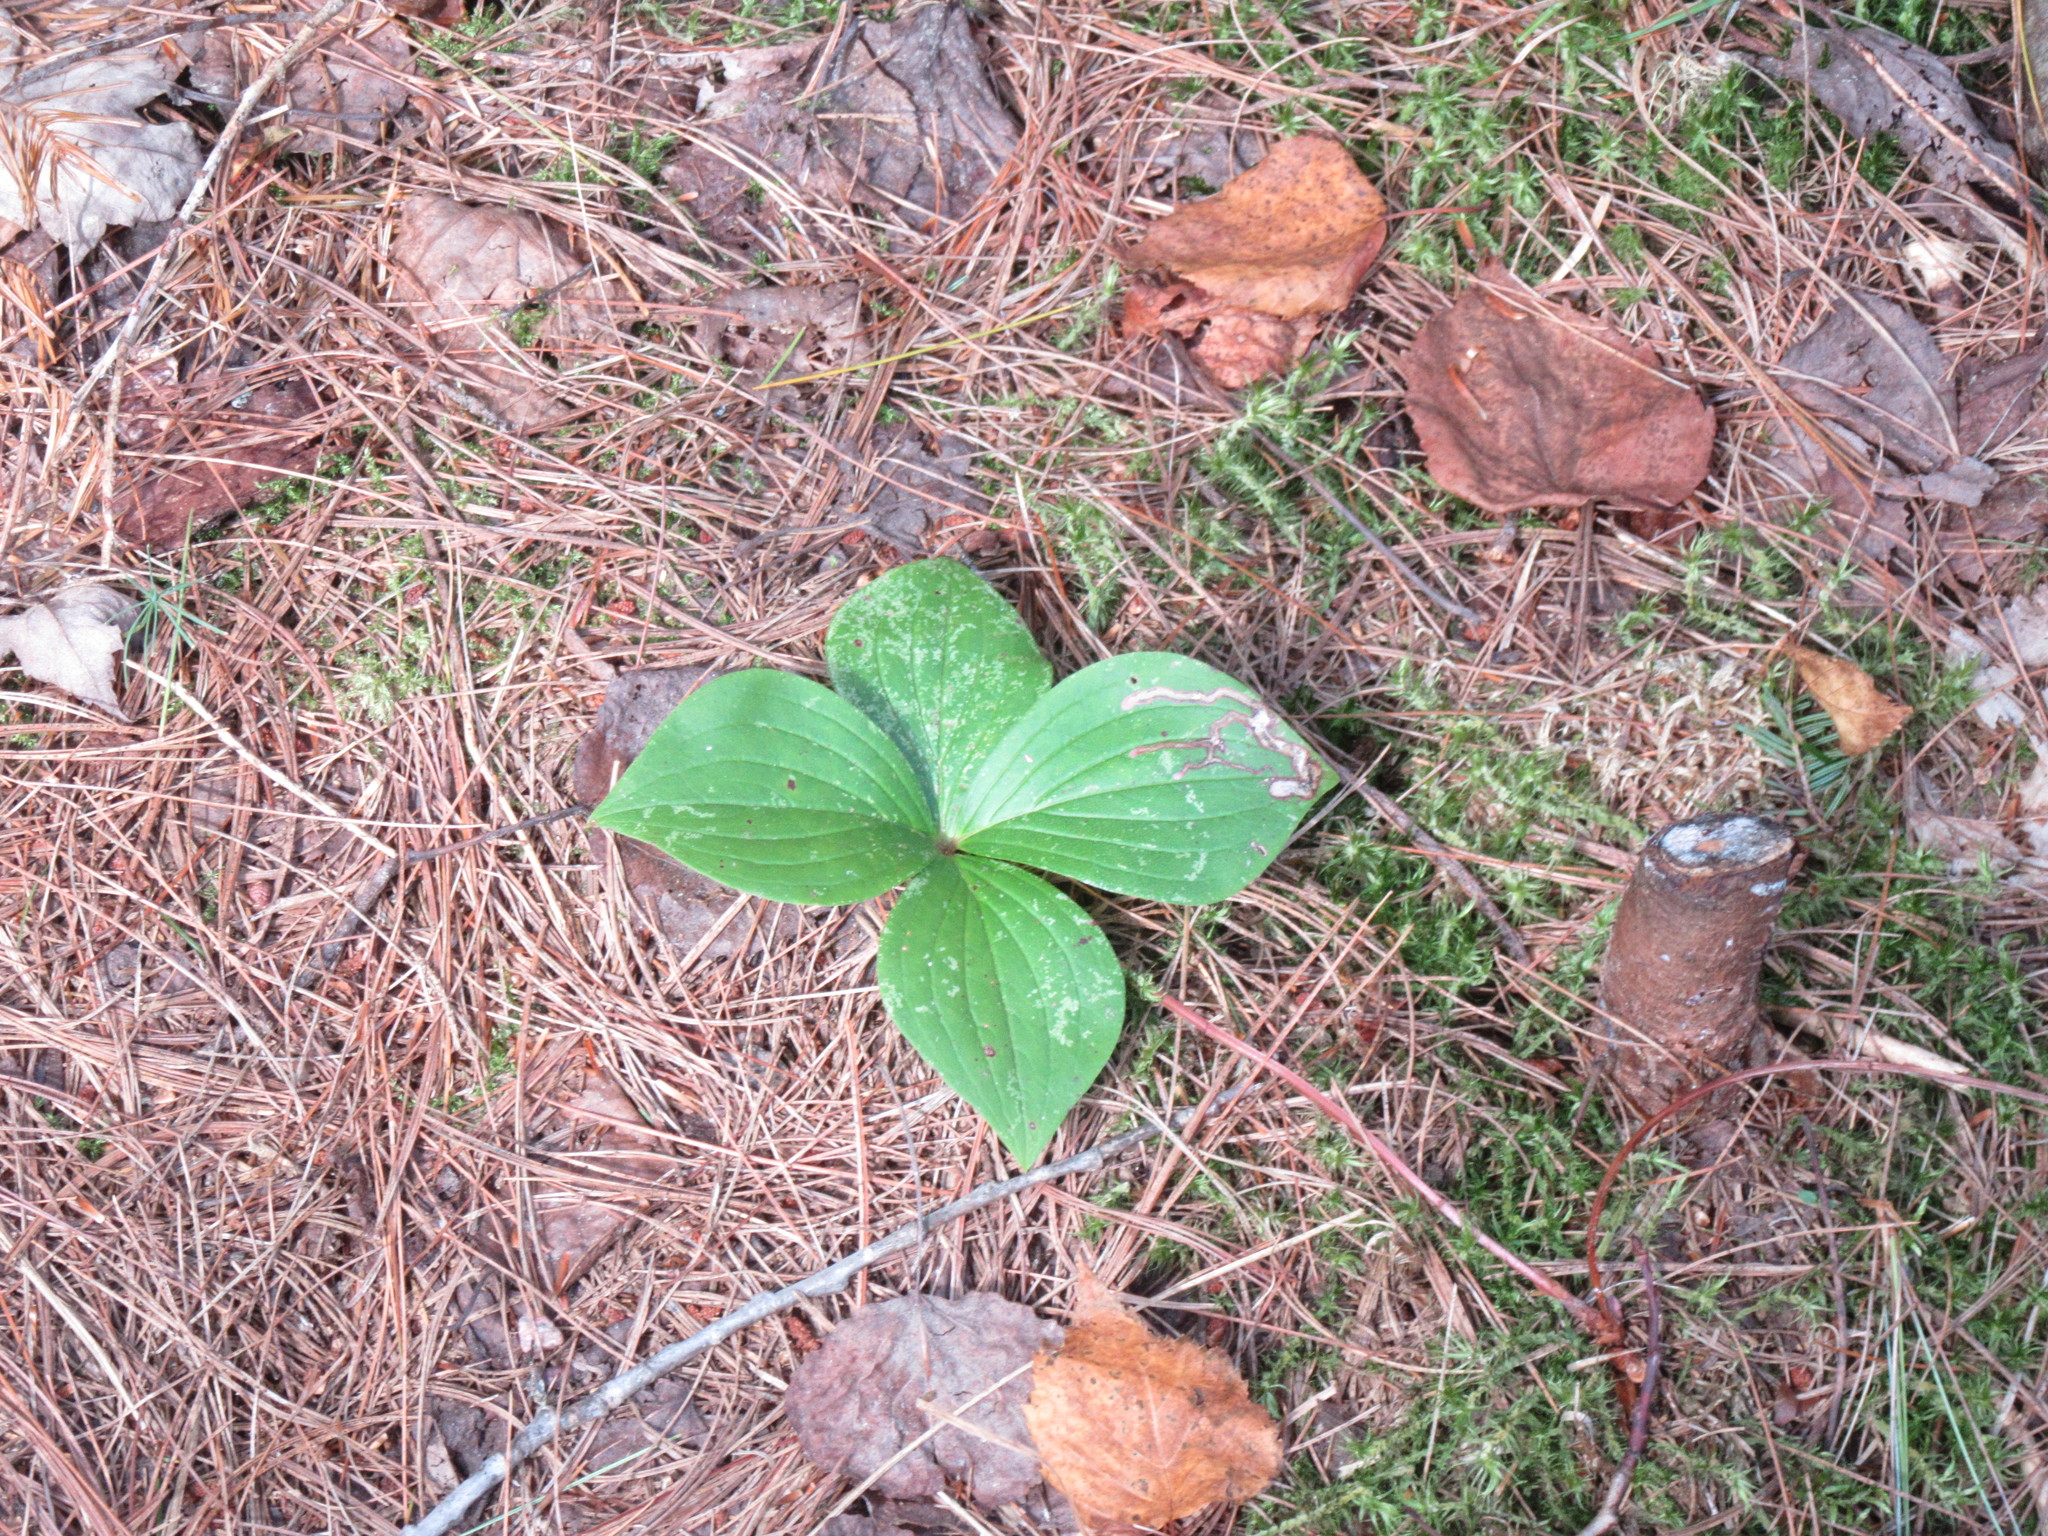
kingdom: Plantae
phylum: Tracheophyta
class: Magnoliopsida
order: Cornales
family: Cornaceae
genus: Cornus
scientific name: Cornus canadensis
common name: Creeping dogwood
